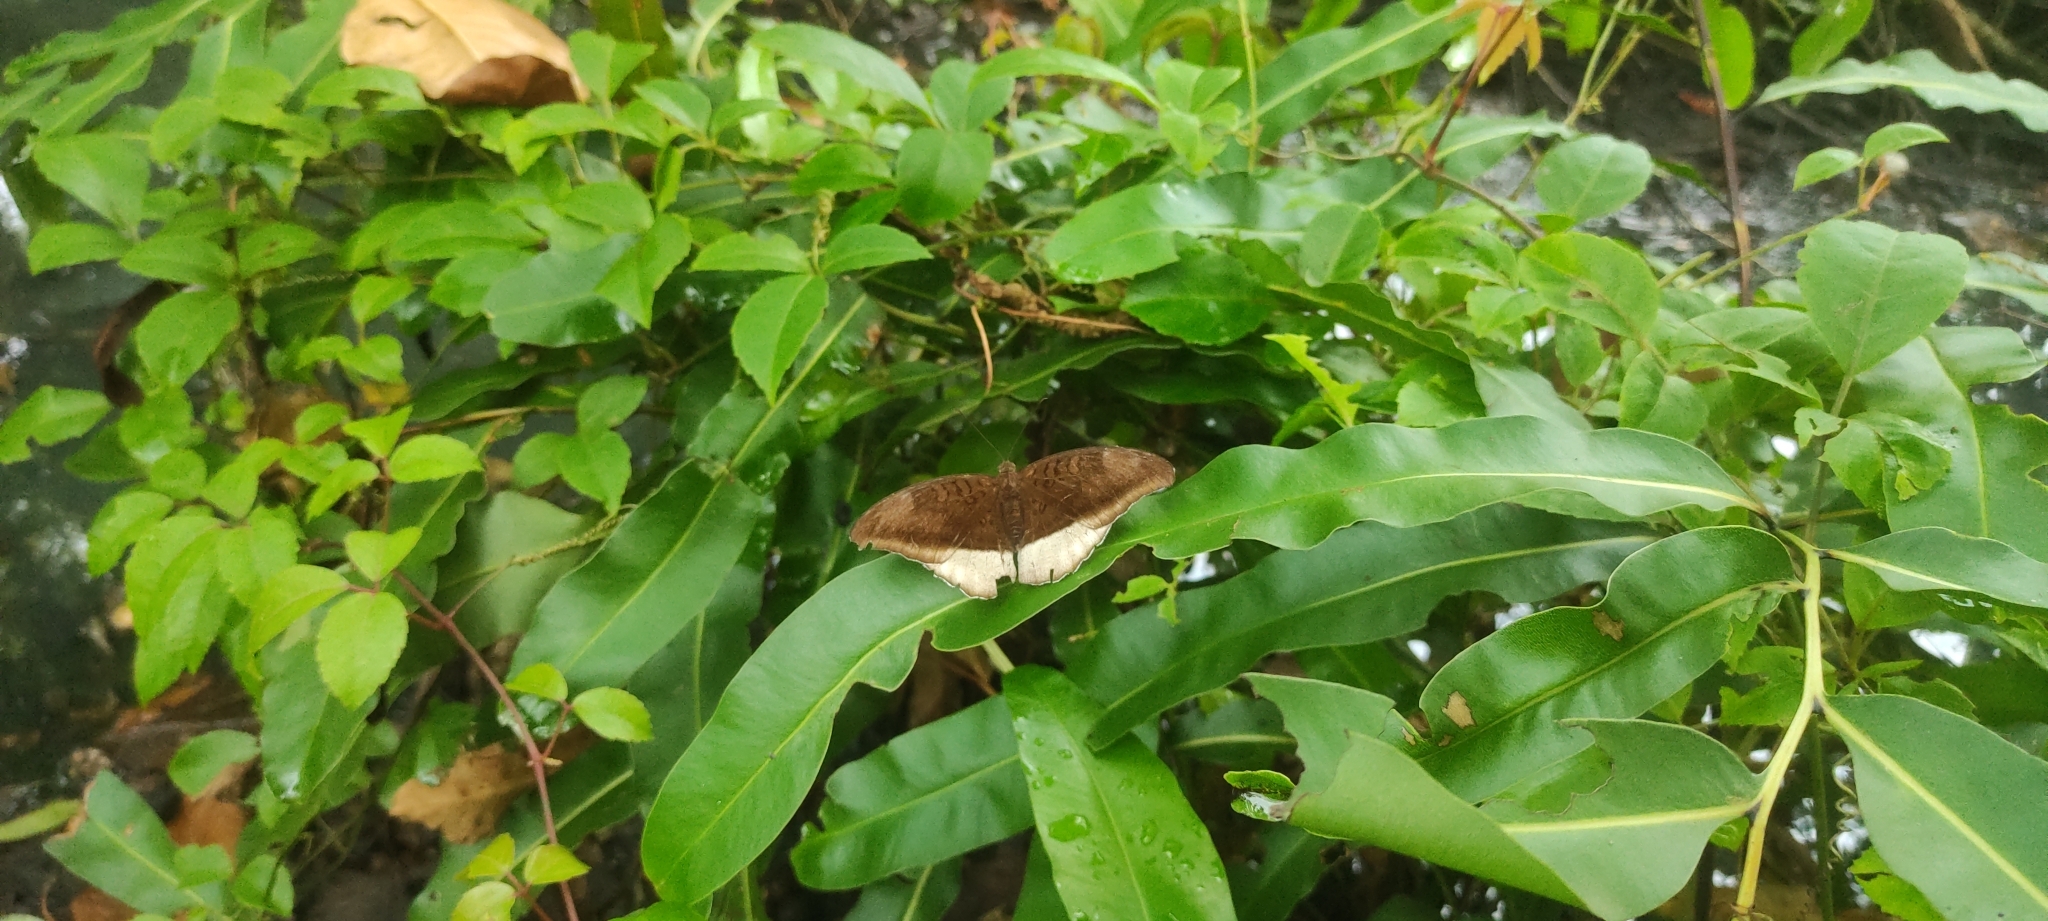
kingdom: Animalia
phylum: Arthropoda
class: Insecta
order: Lepidoptera
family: Nymphalidae
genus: Tanaecia
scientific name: Tanaecia lepidea
